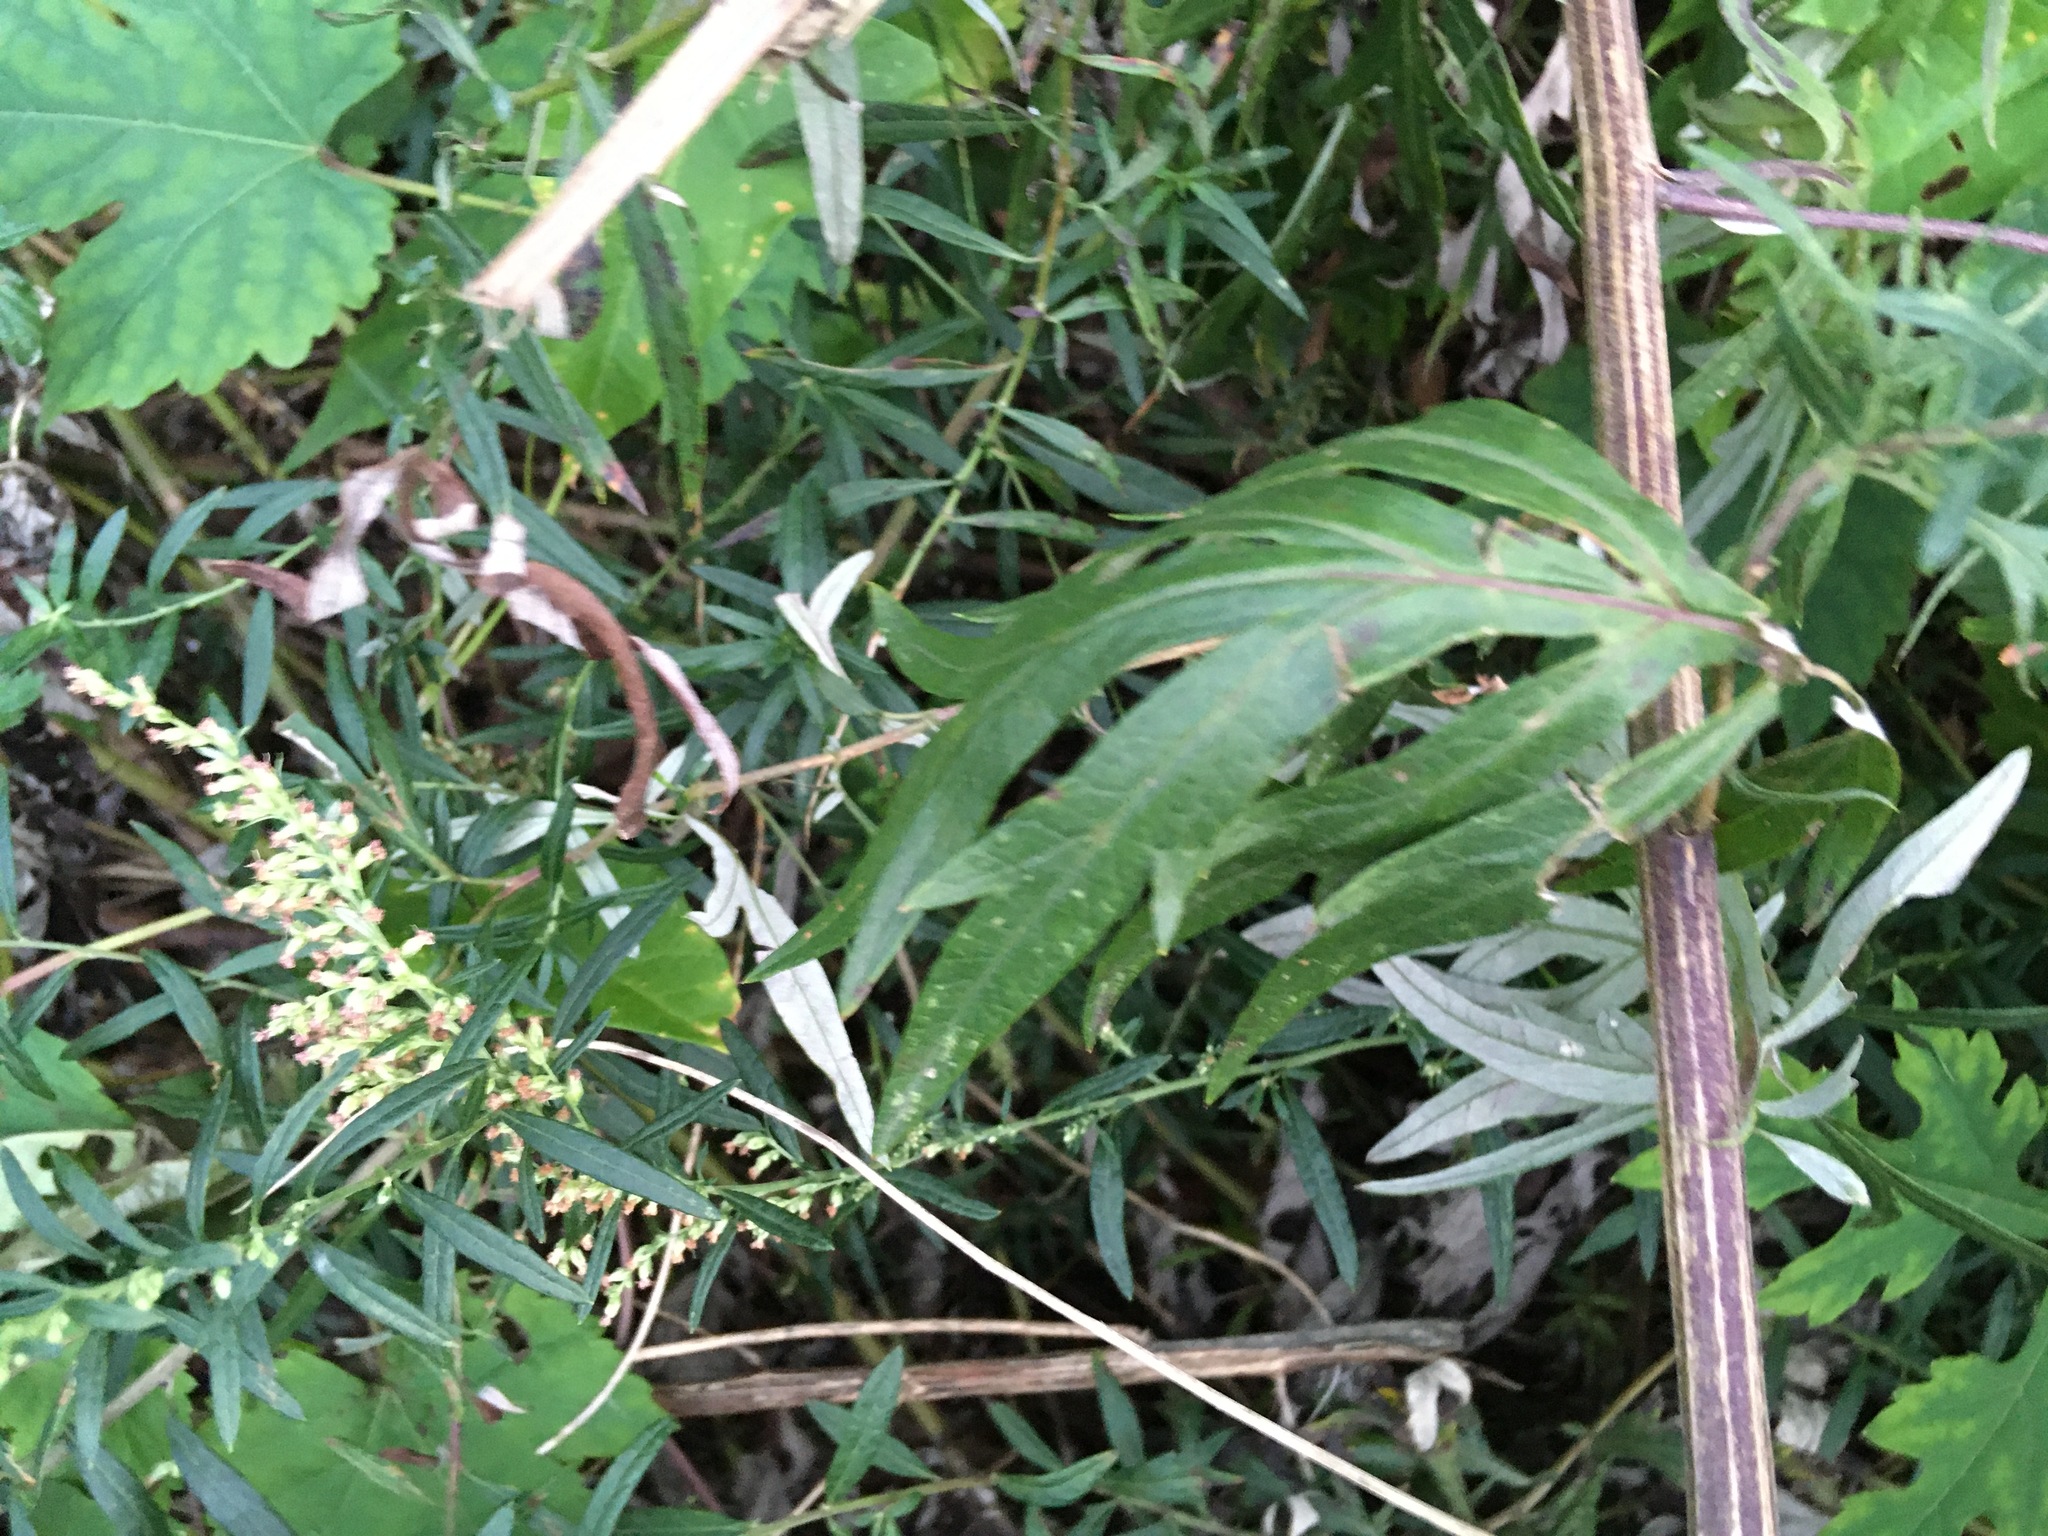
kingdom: Plantae
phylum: Tracheophyta
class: Magnoliopsida
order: Asterales
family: Asteraceae
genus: Artemisia
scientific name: Artemisia vulgaris
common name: Mugwort
